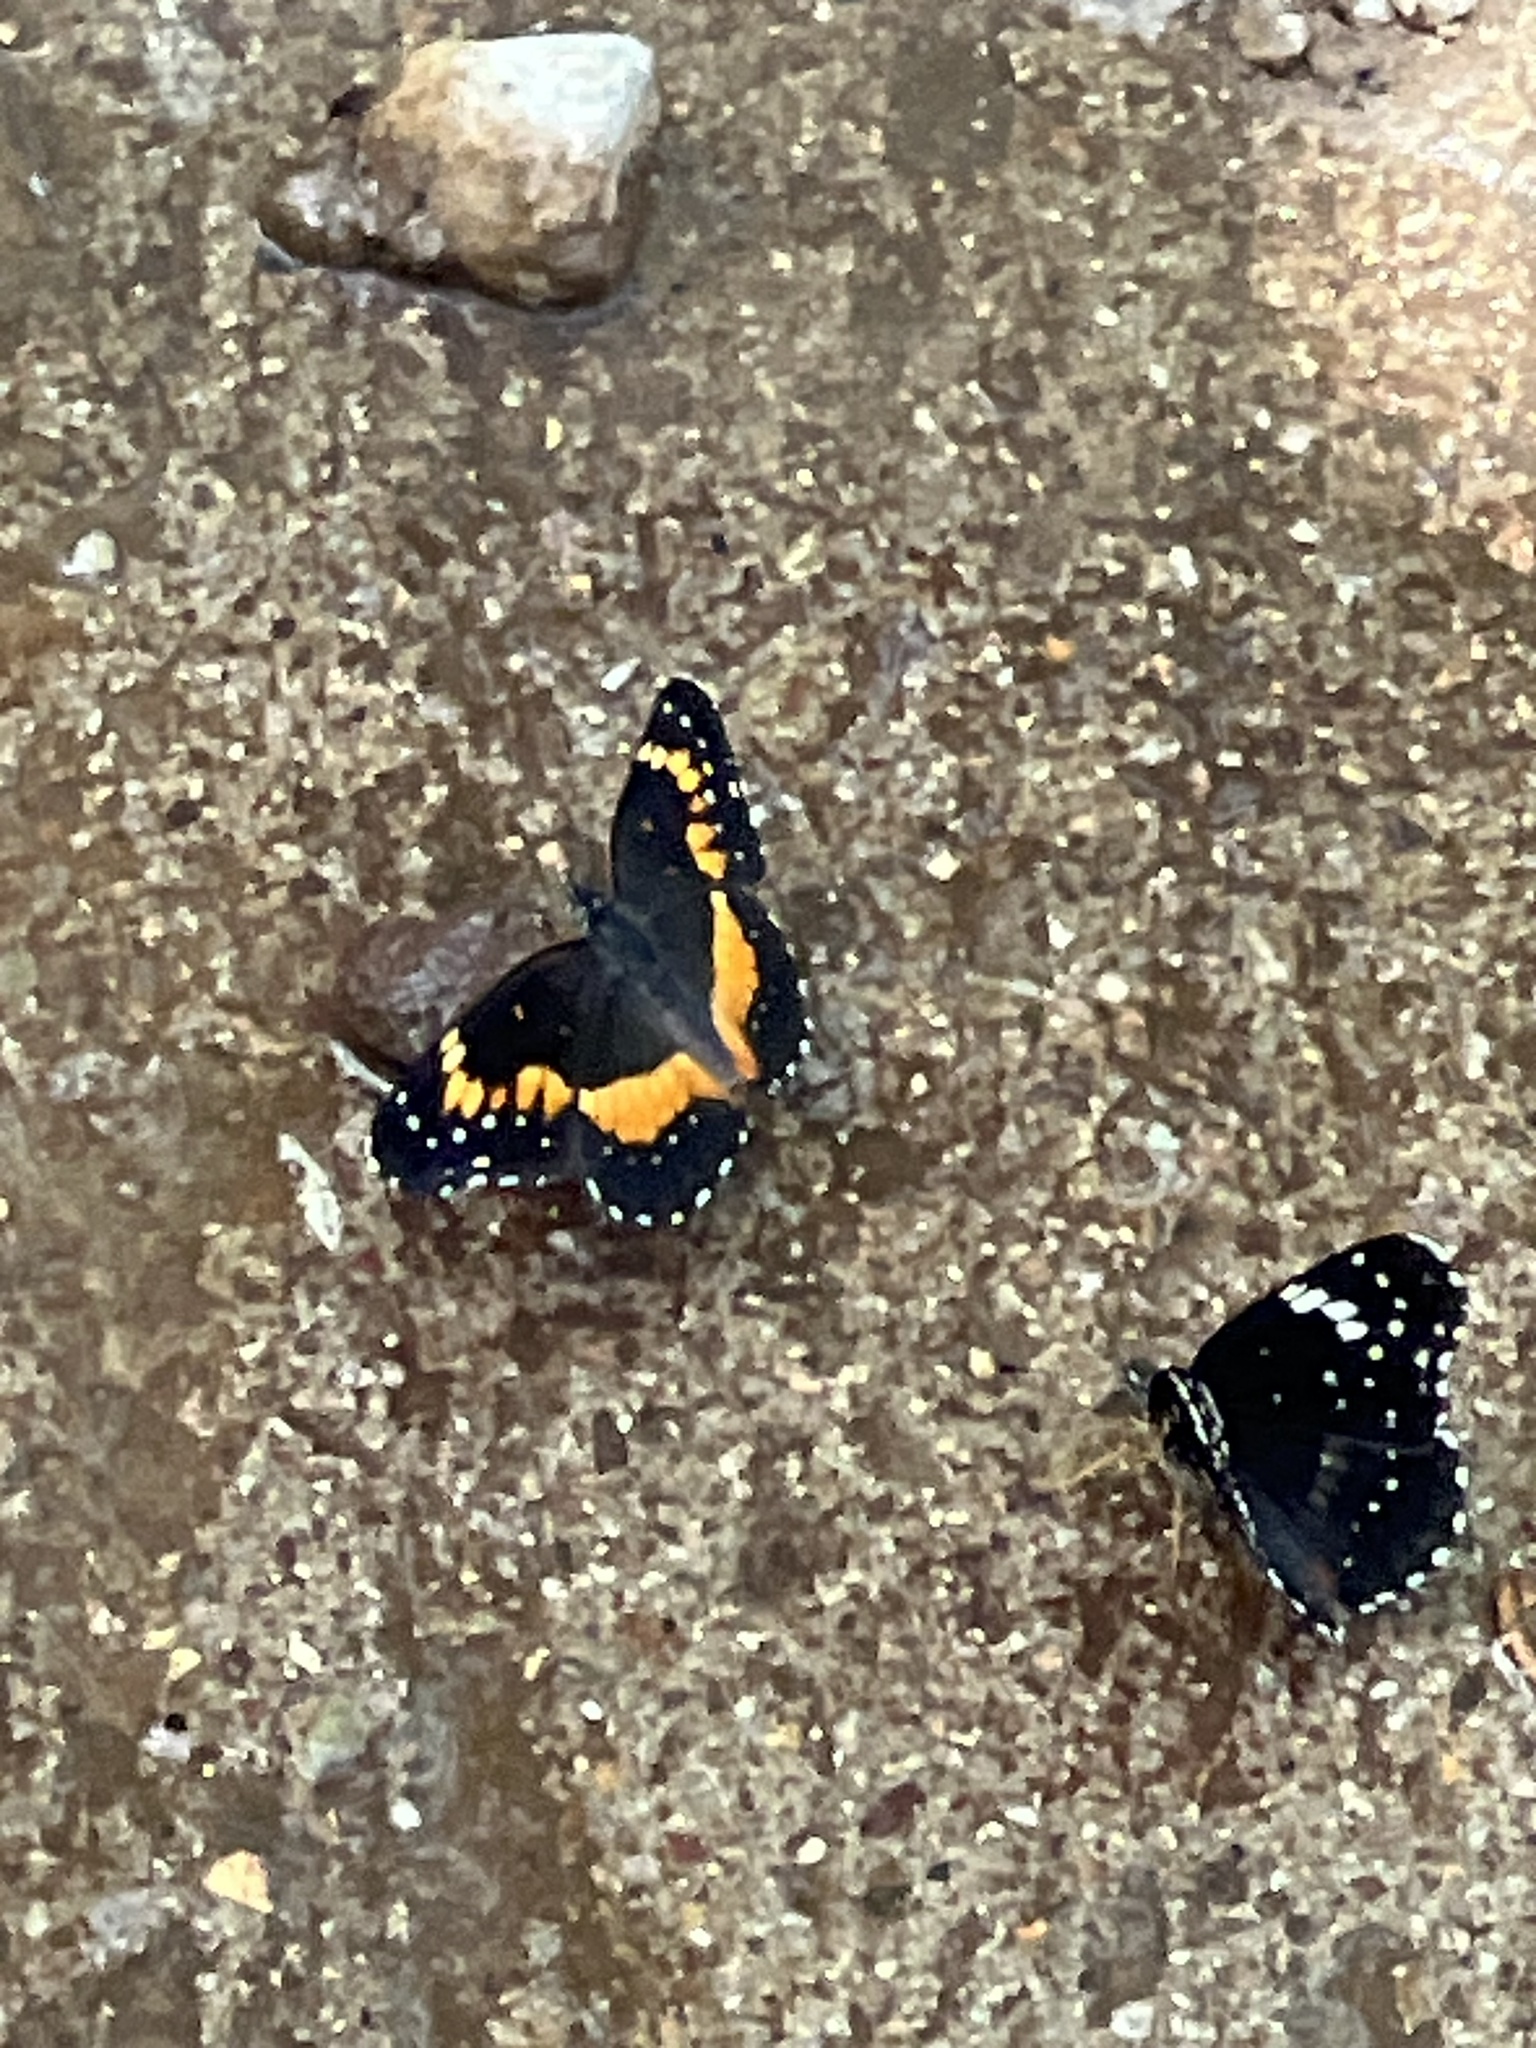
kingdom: Animalia
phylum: Arthropoda
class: Insecta
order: Lepidoptera
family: Nymphalidae
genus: Chlosyne
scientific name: Chlosyne lacinia
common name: Bordered patch
